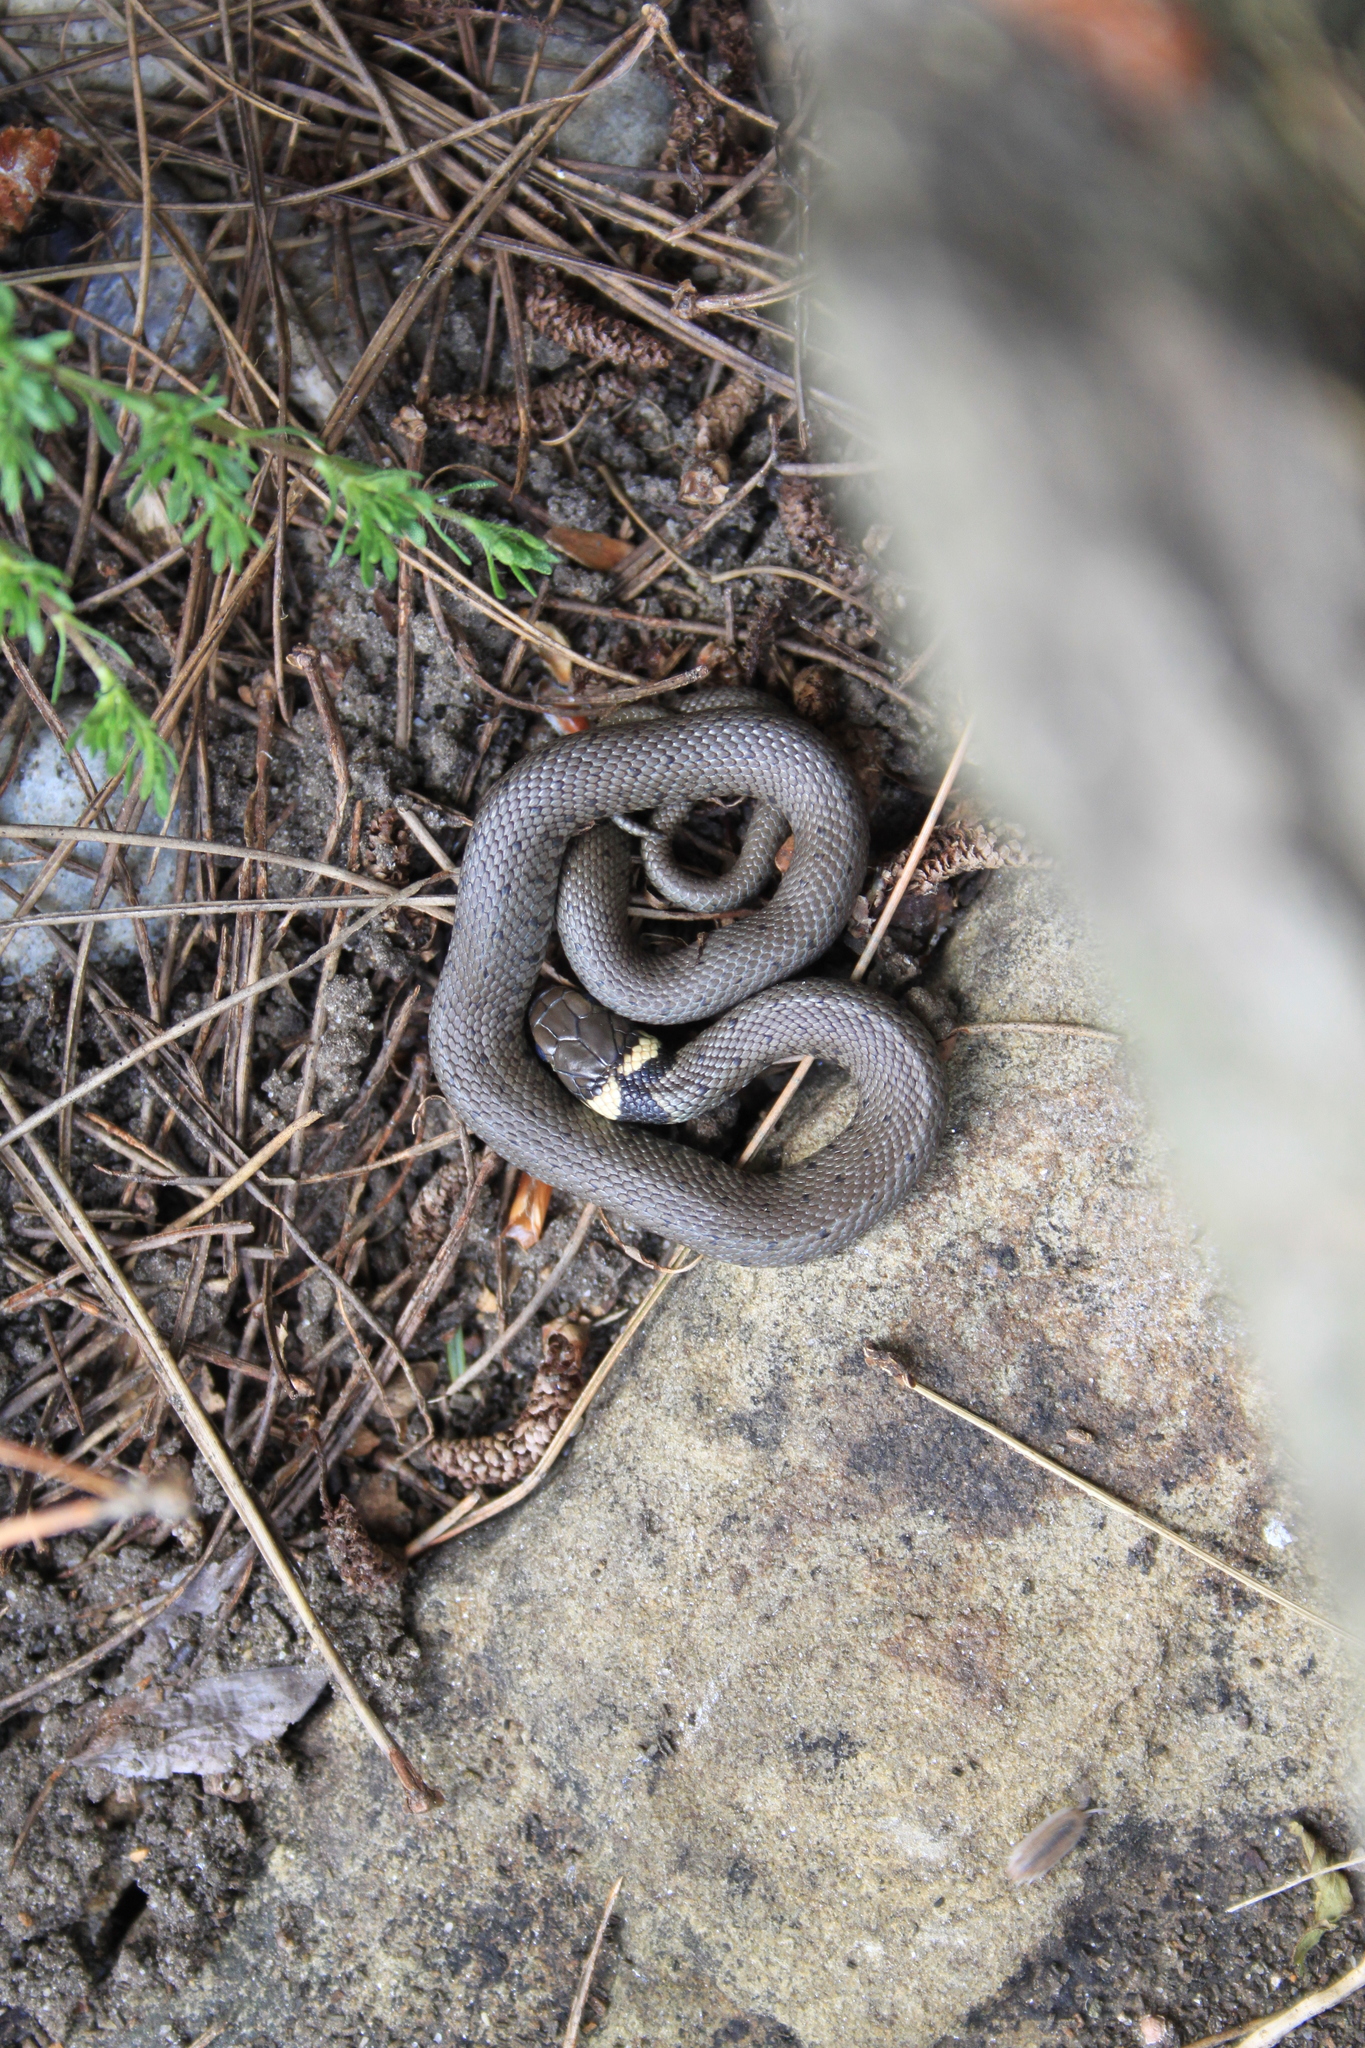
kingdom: Animalia
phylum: Chordata
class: Squamata
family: Colubridae
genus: Natrix
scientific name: Natrix helvetica
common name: Banded grass snake
